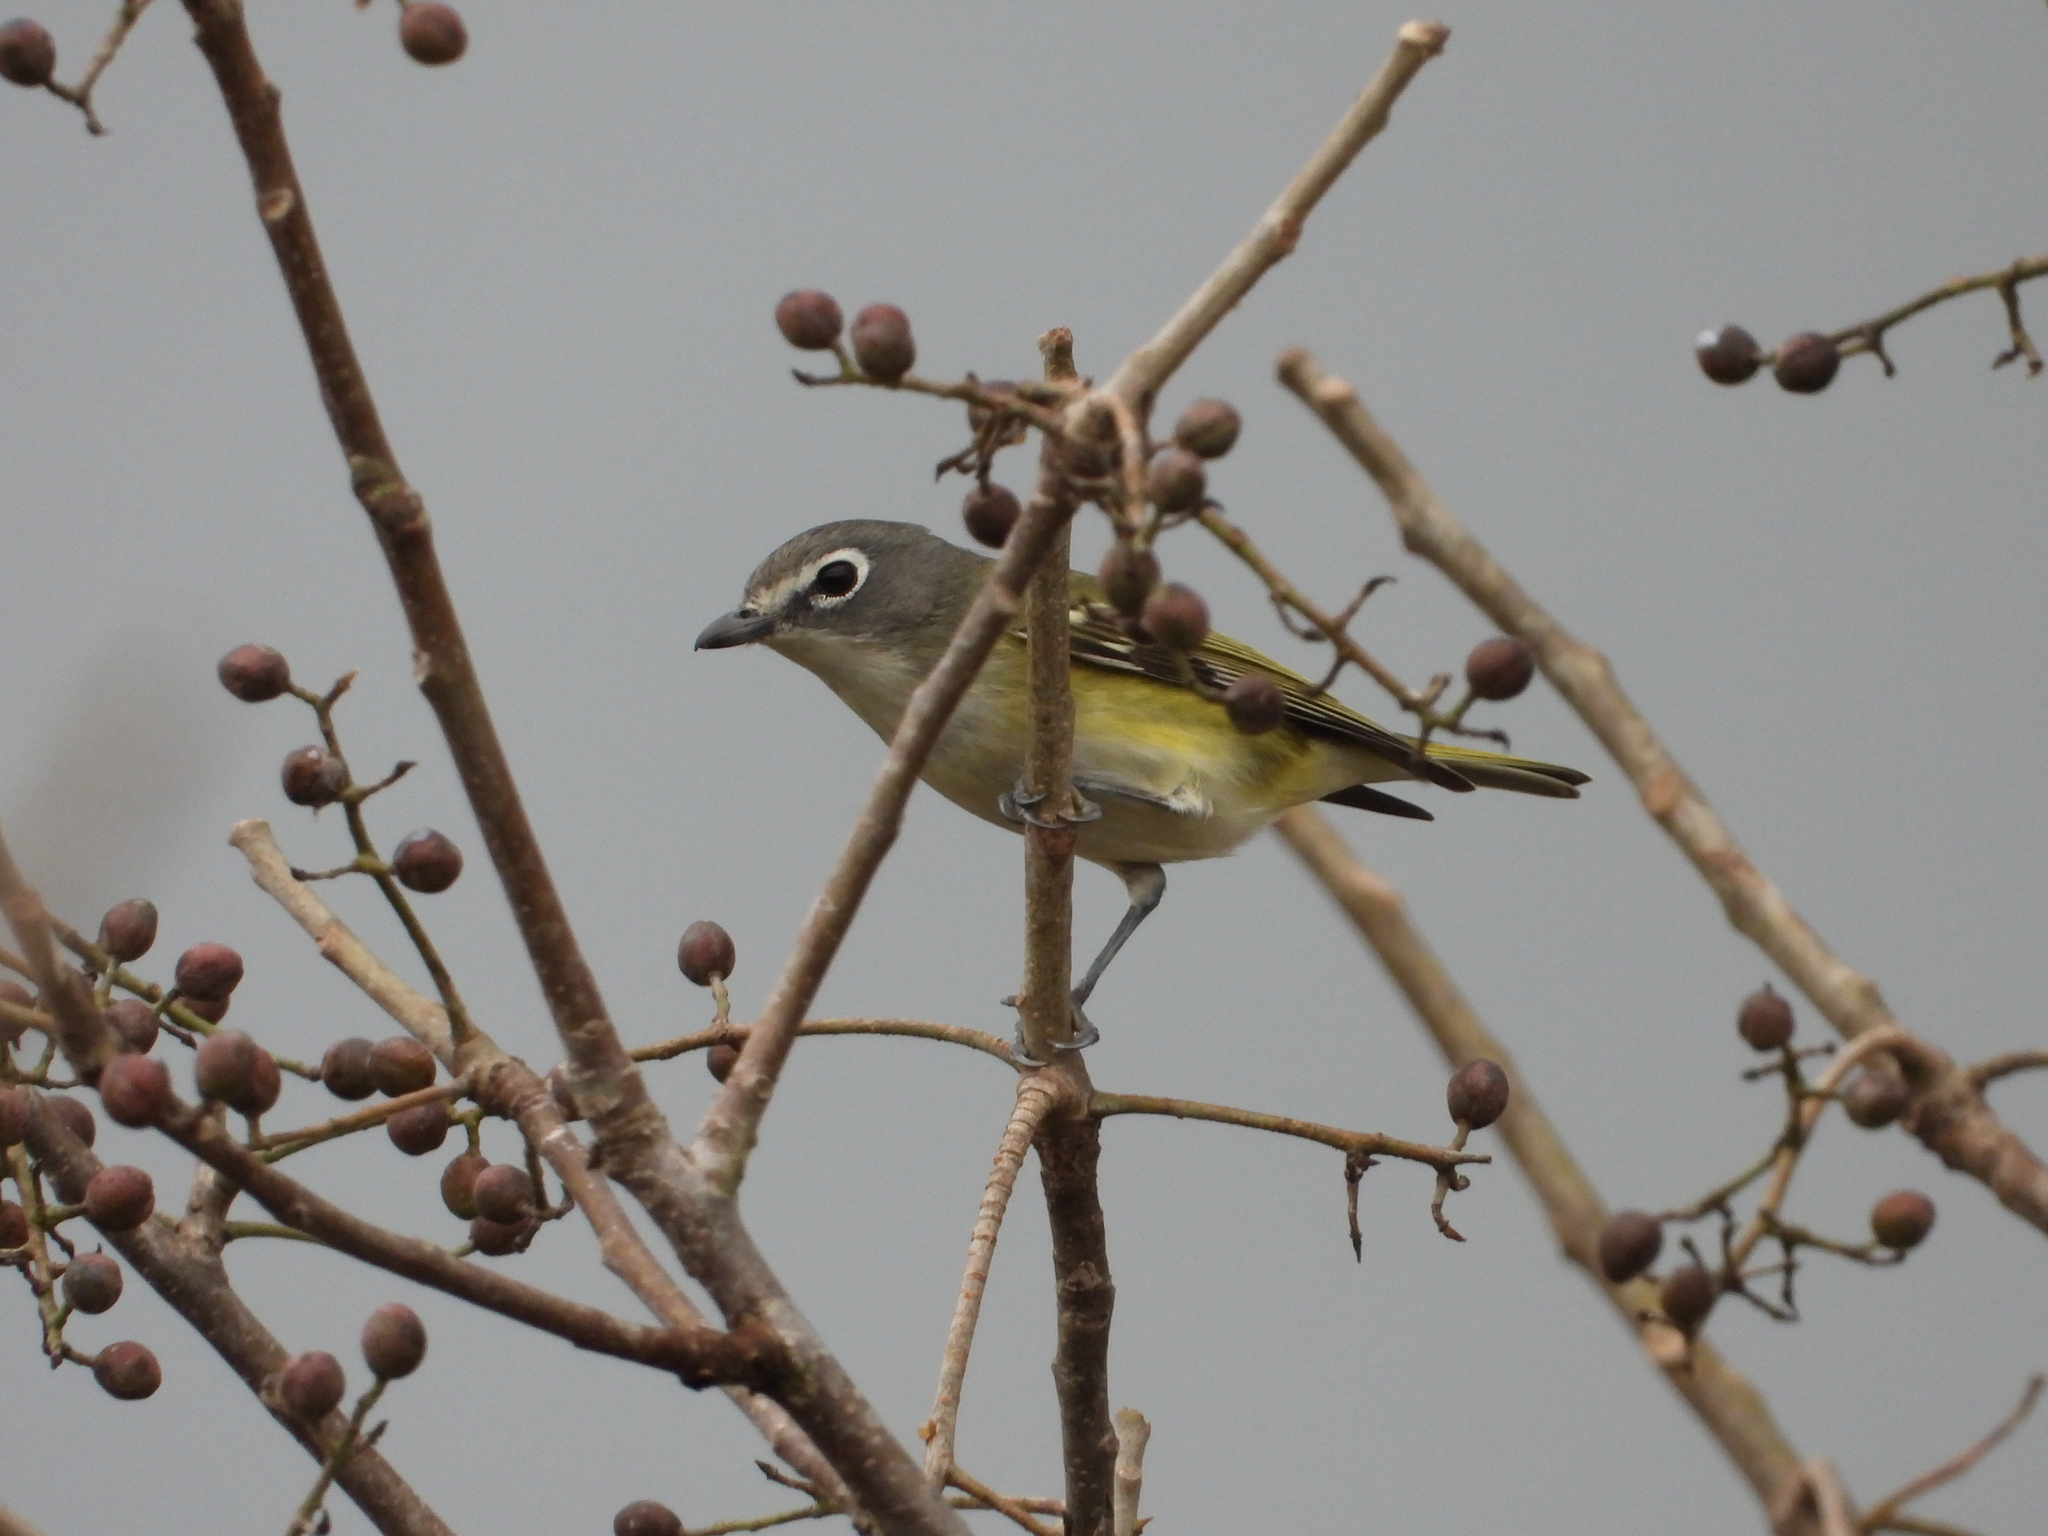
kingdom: Animalia
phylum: Chordata
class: Aves
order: Passeriformes
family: Vireonidae
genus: Vireo
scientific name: Vireo solitarius
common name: Blue-headed vireo
